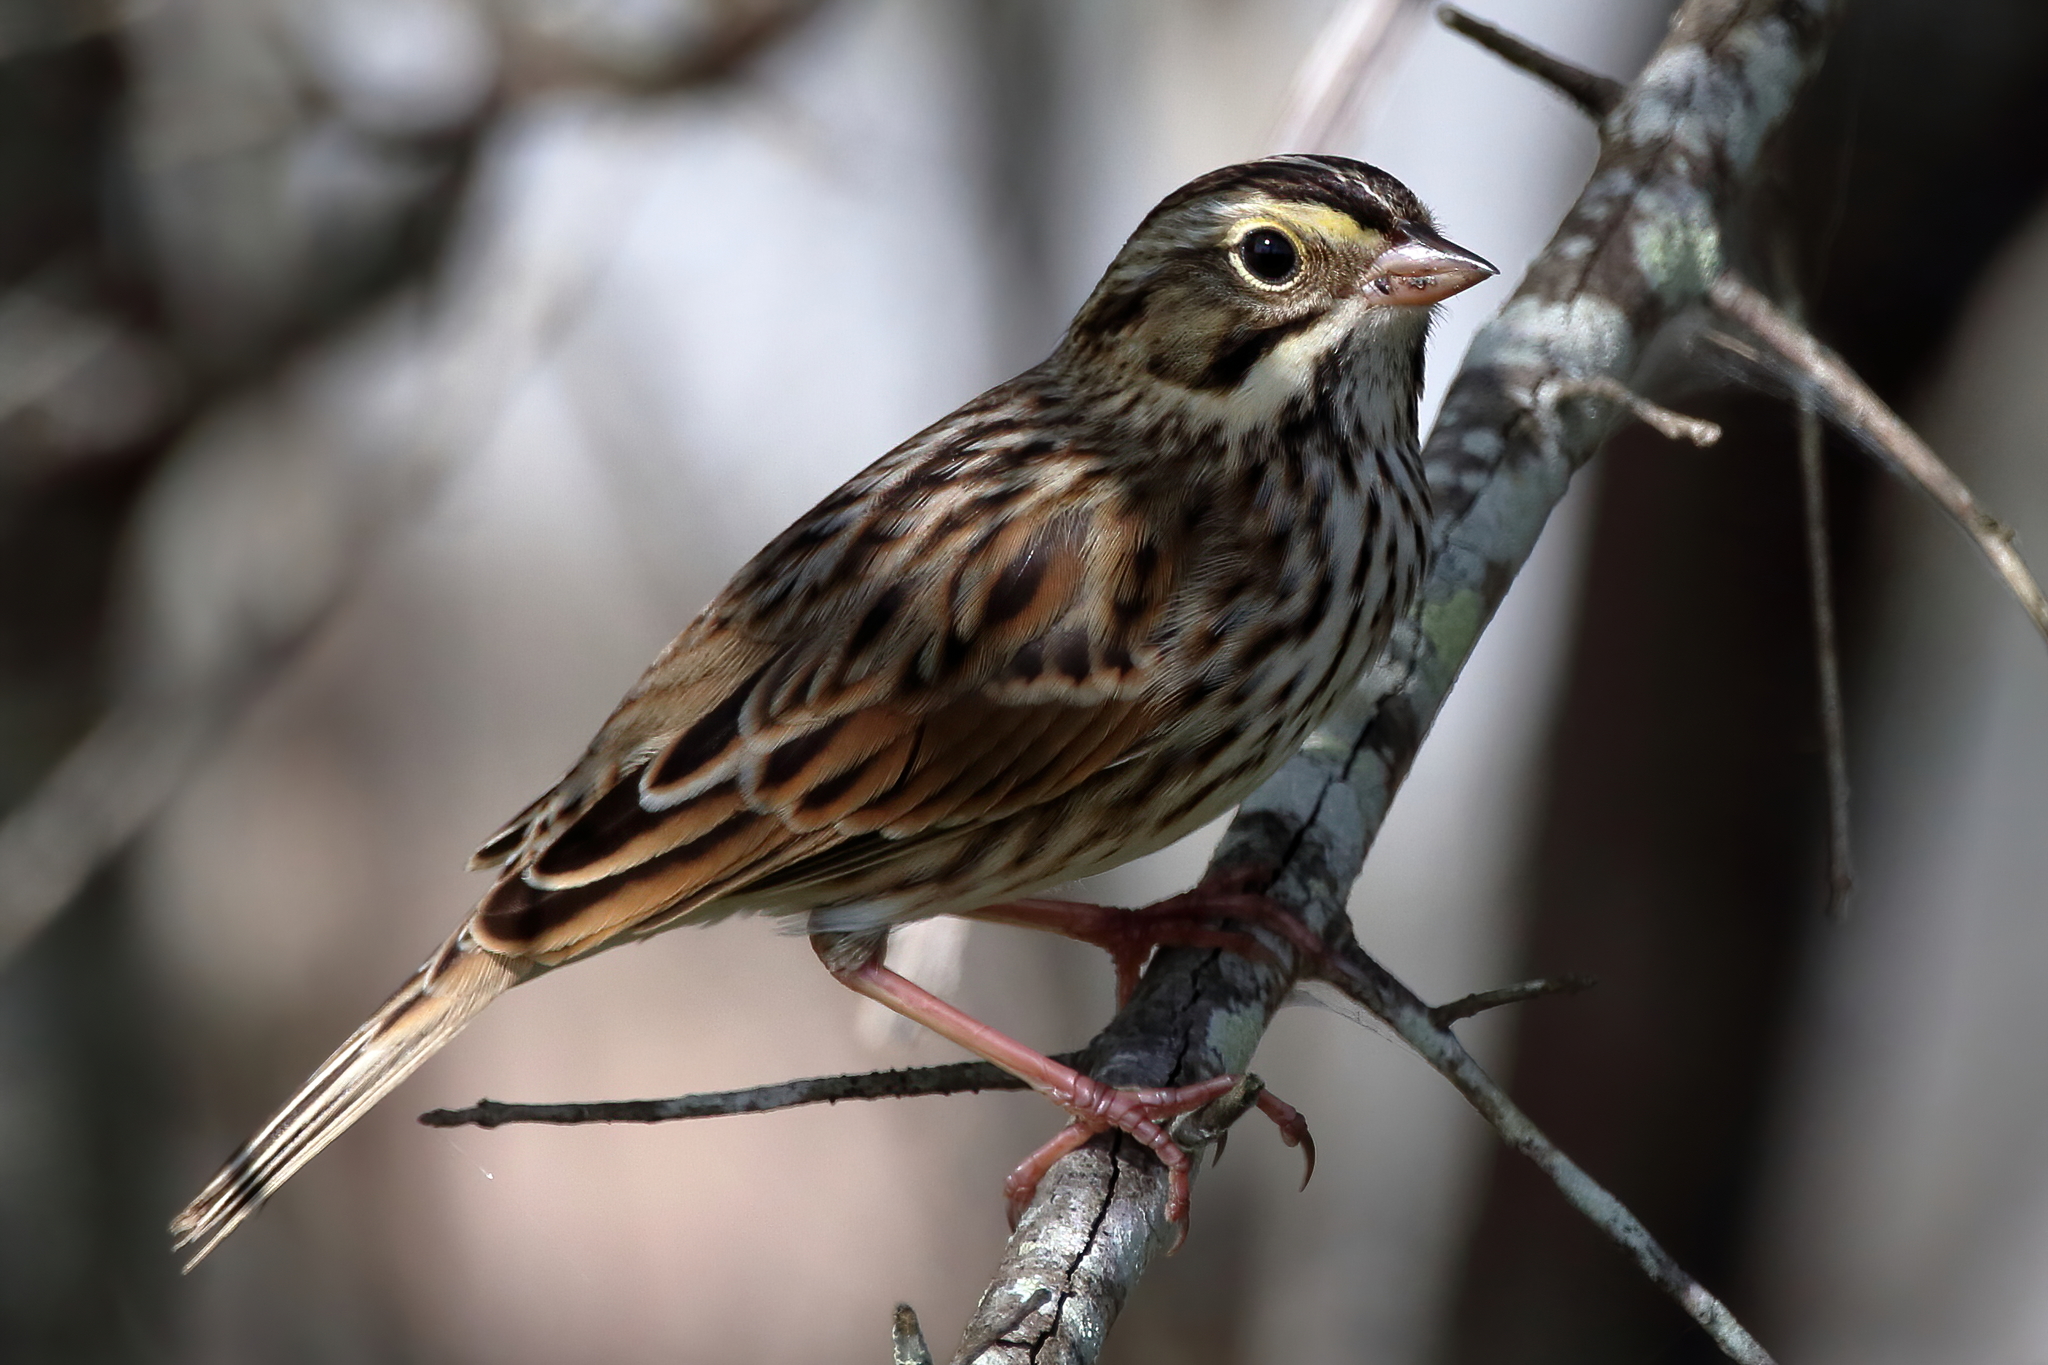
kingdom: Animalia
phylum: Chordata
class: Aves
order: Passeriformes
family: Passerellidae
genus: Passerculus
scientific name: Passerculus sandwichensis
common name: Savannah sparrow
